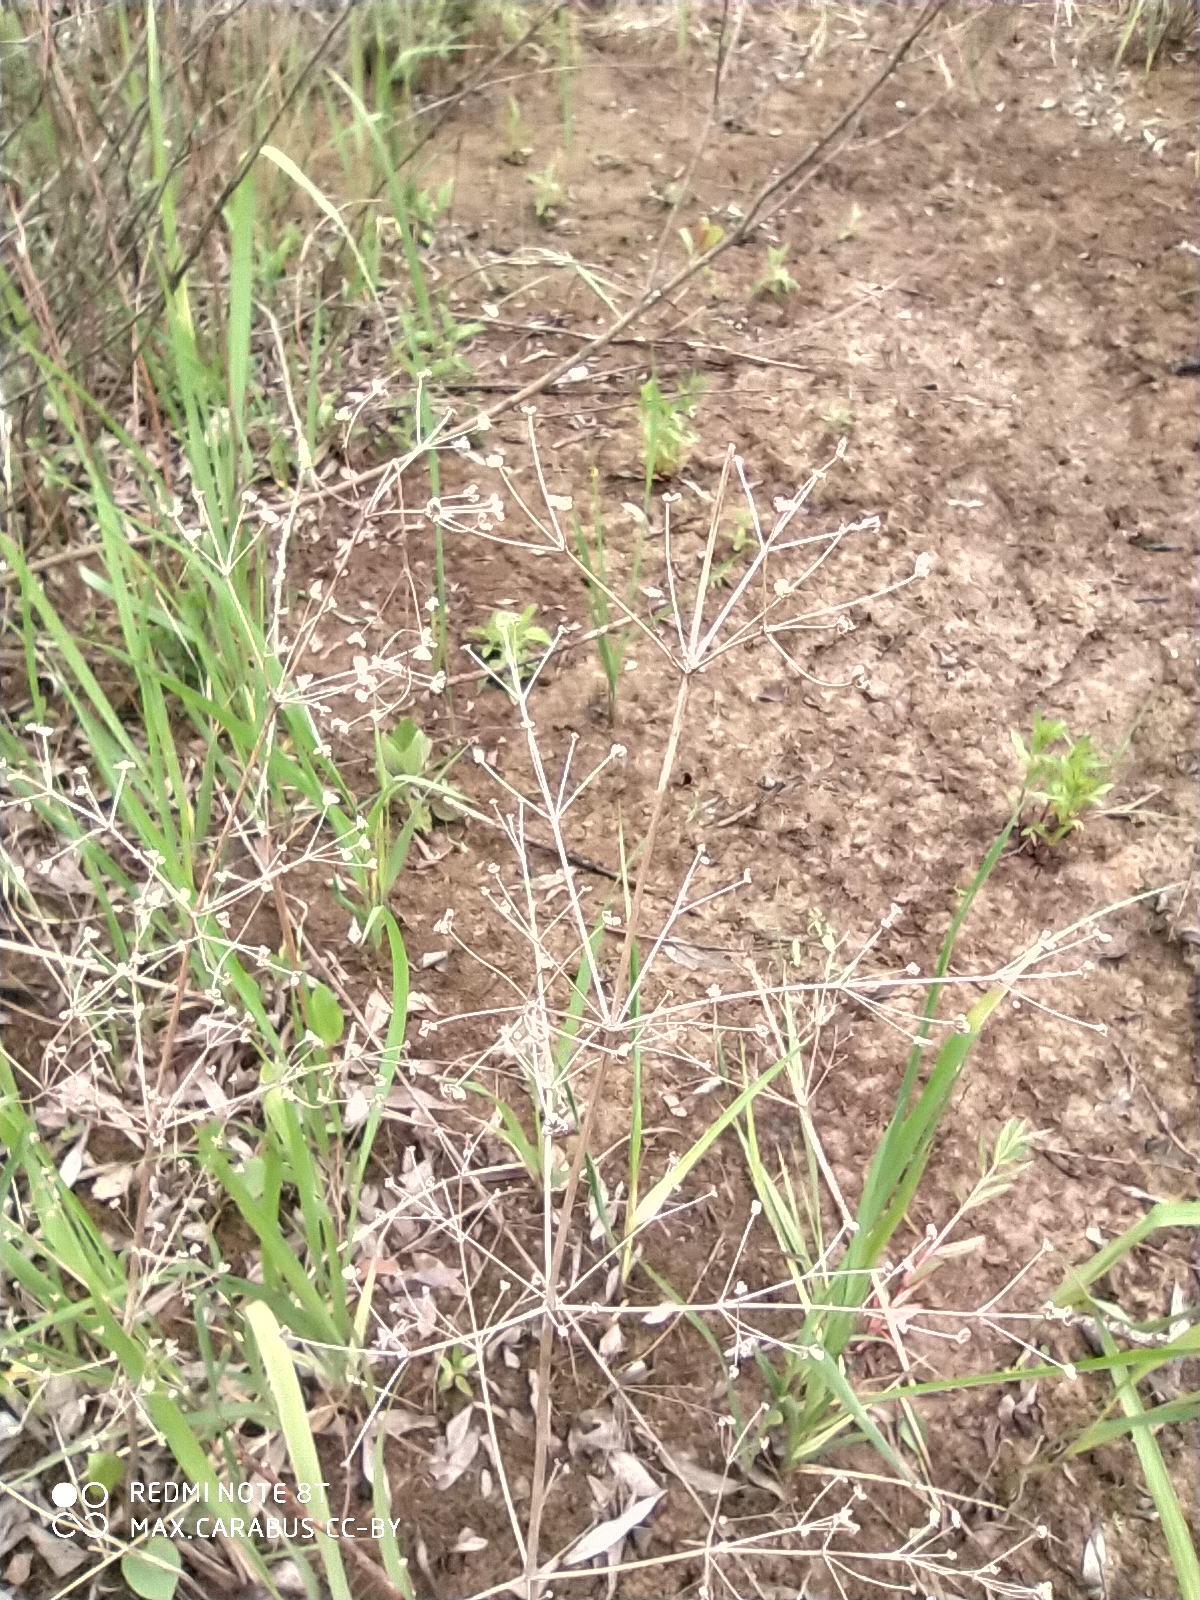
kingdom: Plantae
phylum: Tracheophyta
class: Liliopsida
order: Alismatales
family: Alismataceae
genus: Alisma
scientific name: Alisma plantago-aquatica
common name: Water-plantain
